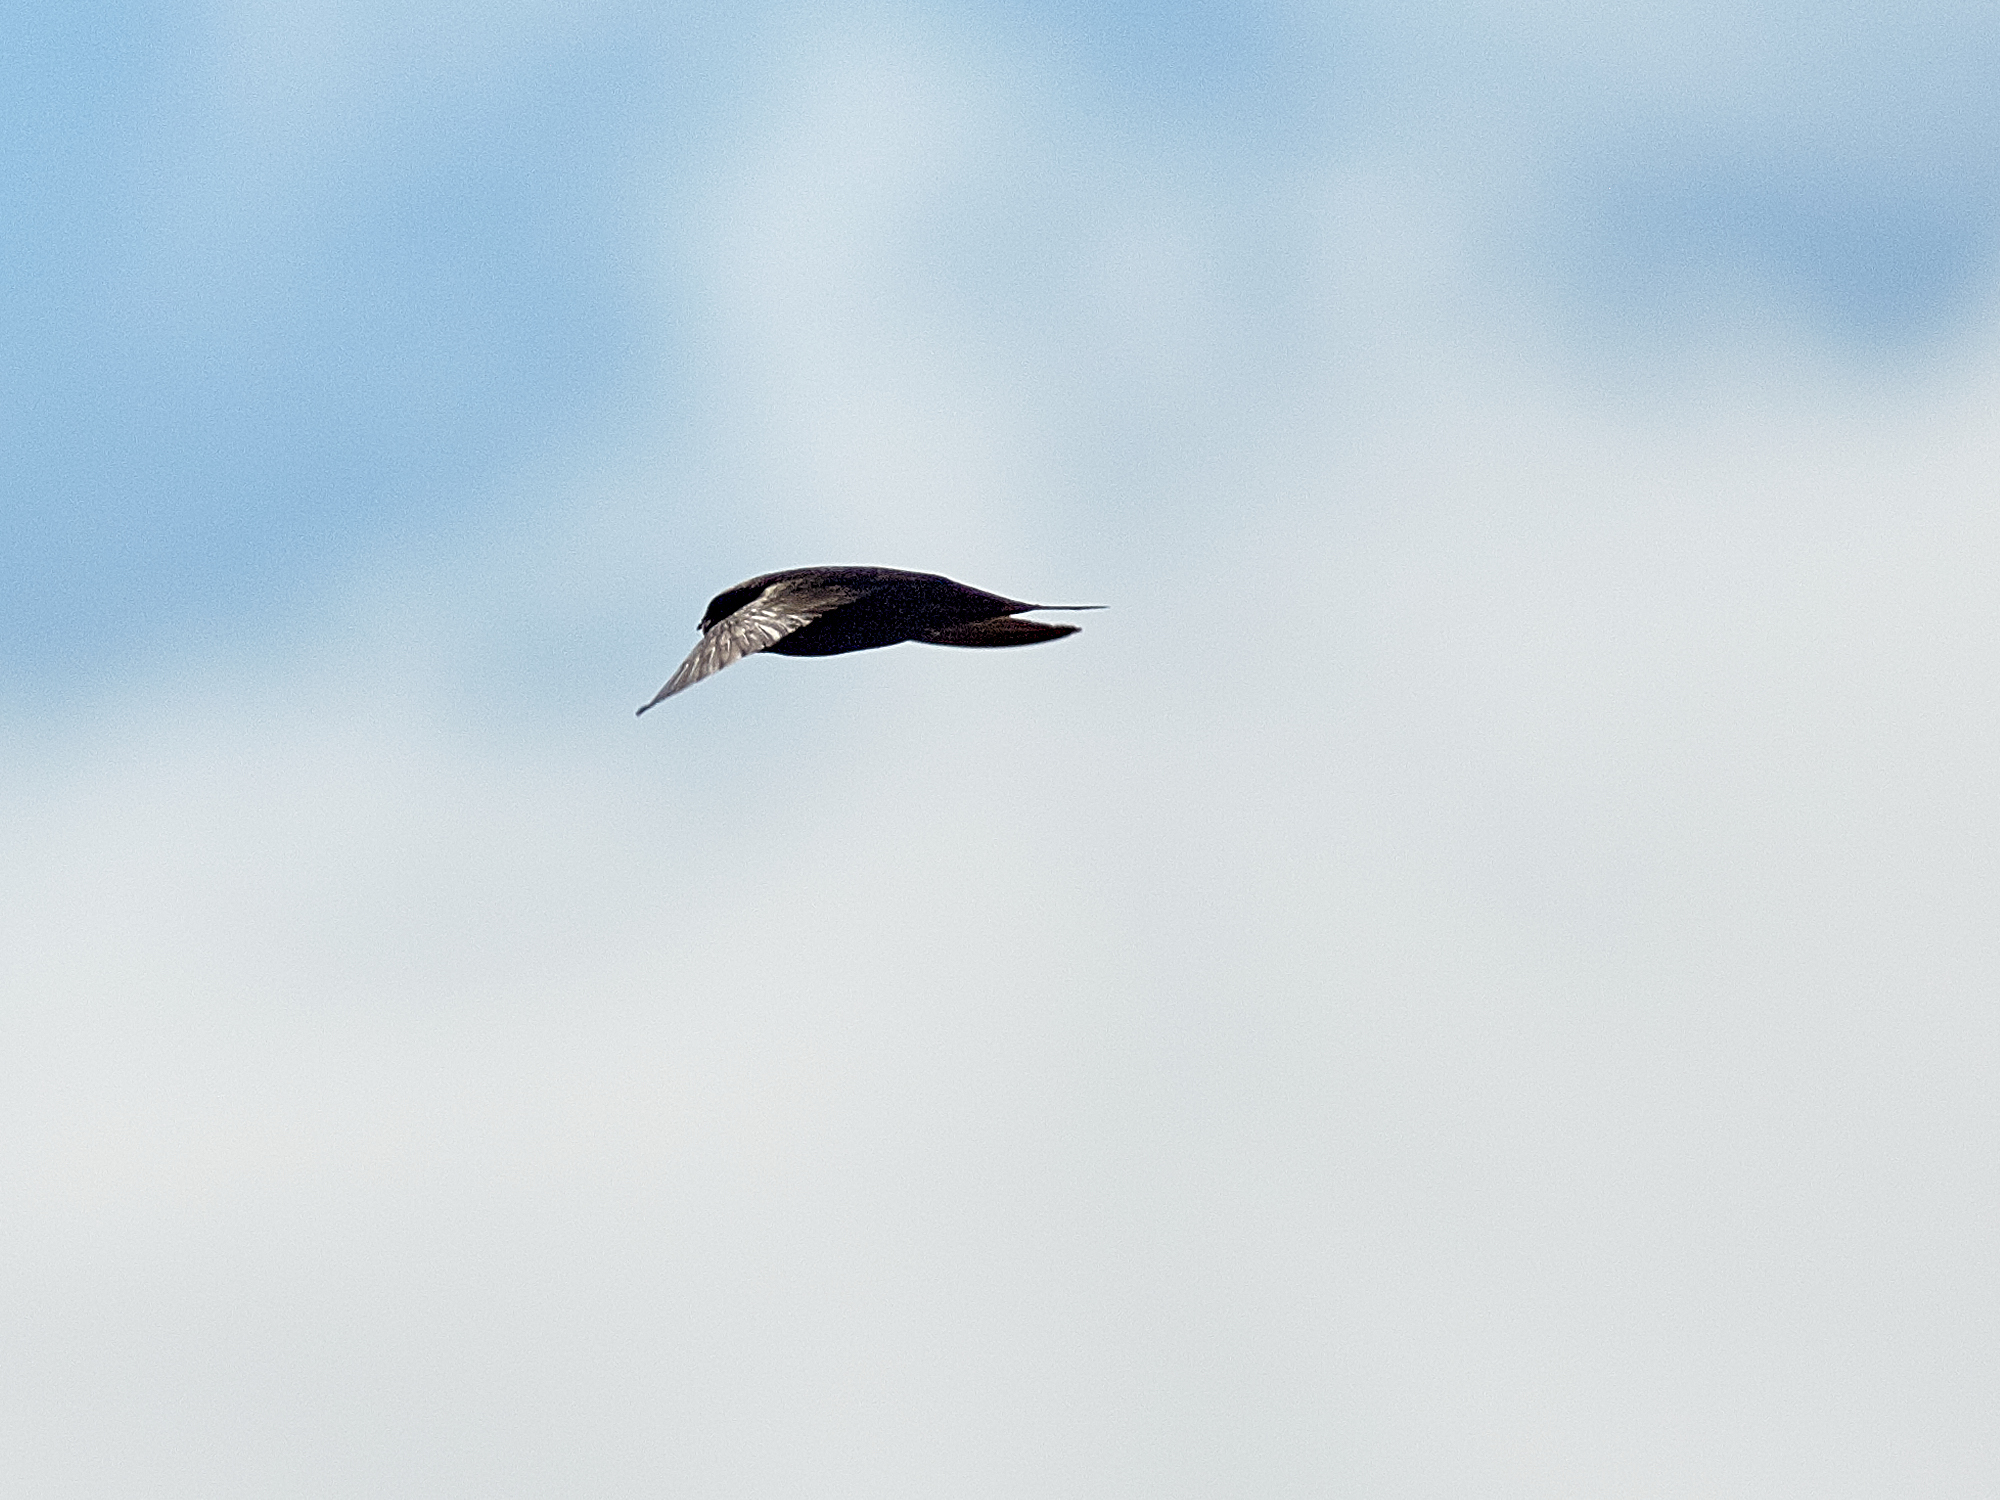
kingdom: Animalia
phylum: Chordata
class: Aves
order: Apodiformes
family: Apodidae
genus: Apus
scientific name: Apus apus
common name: Common swift
